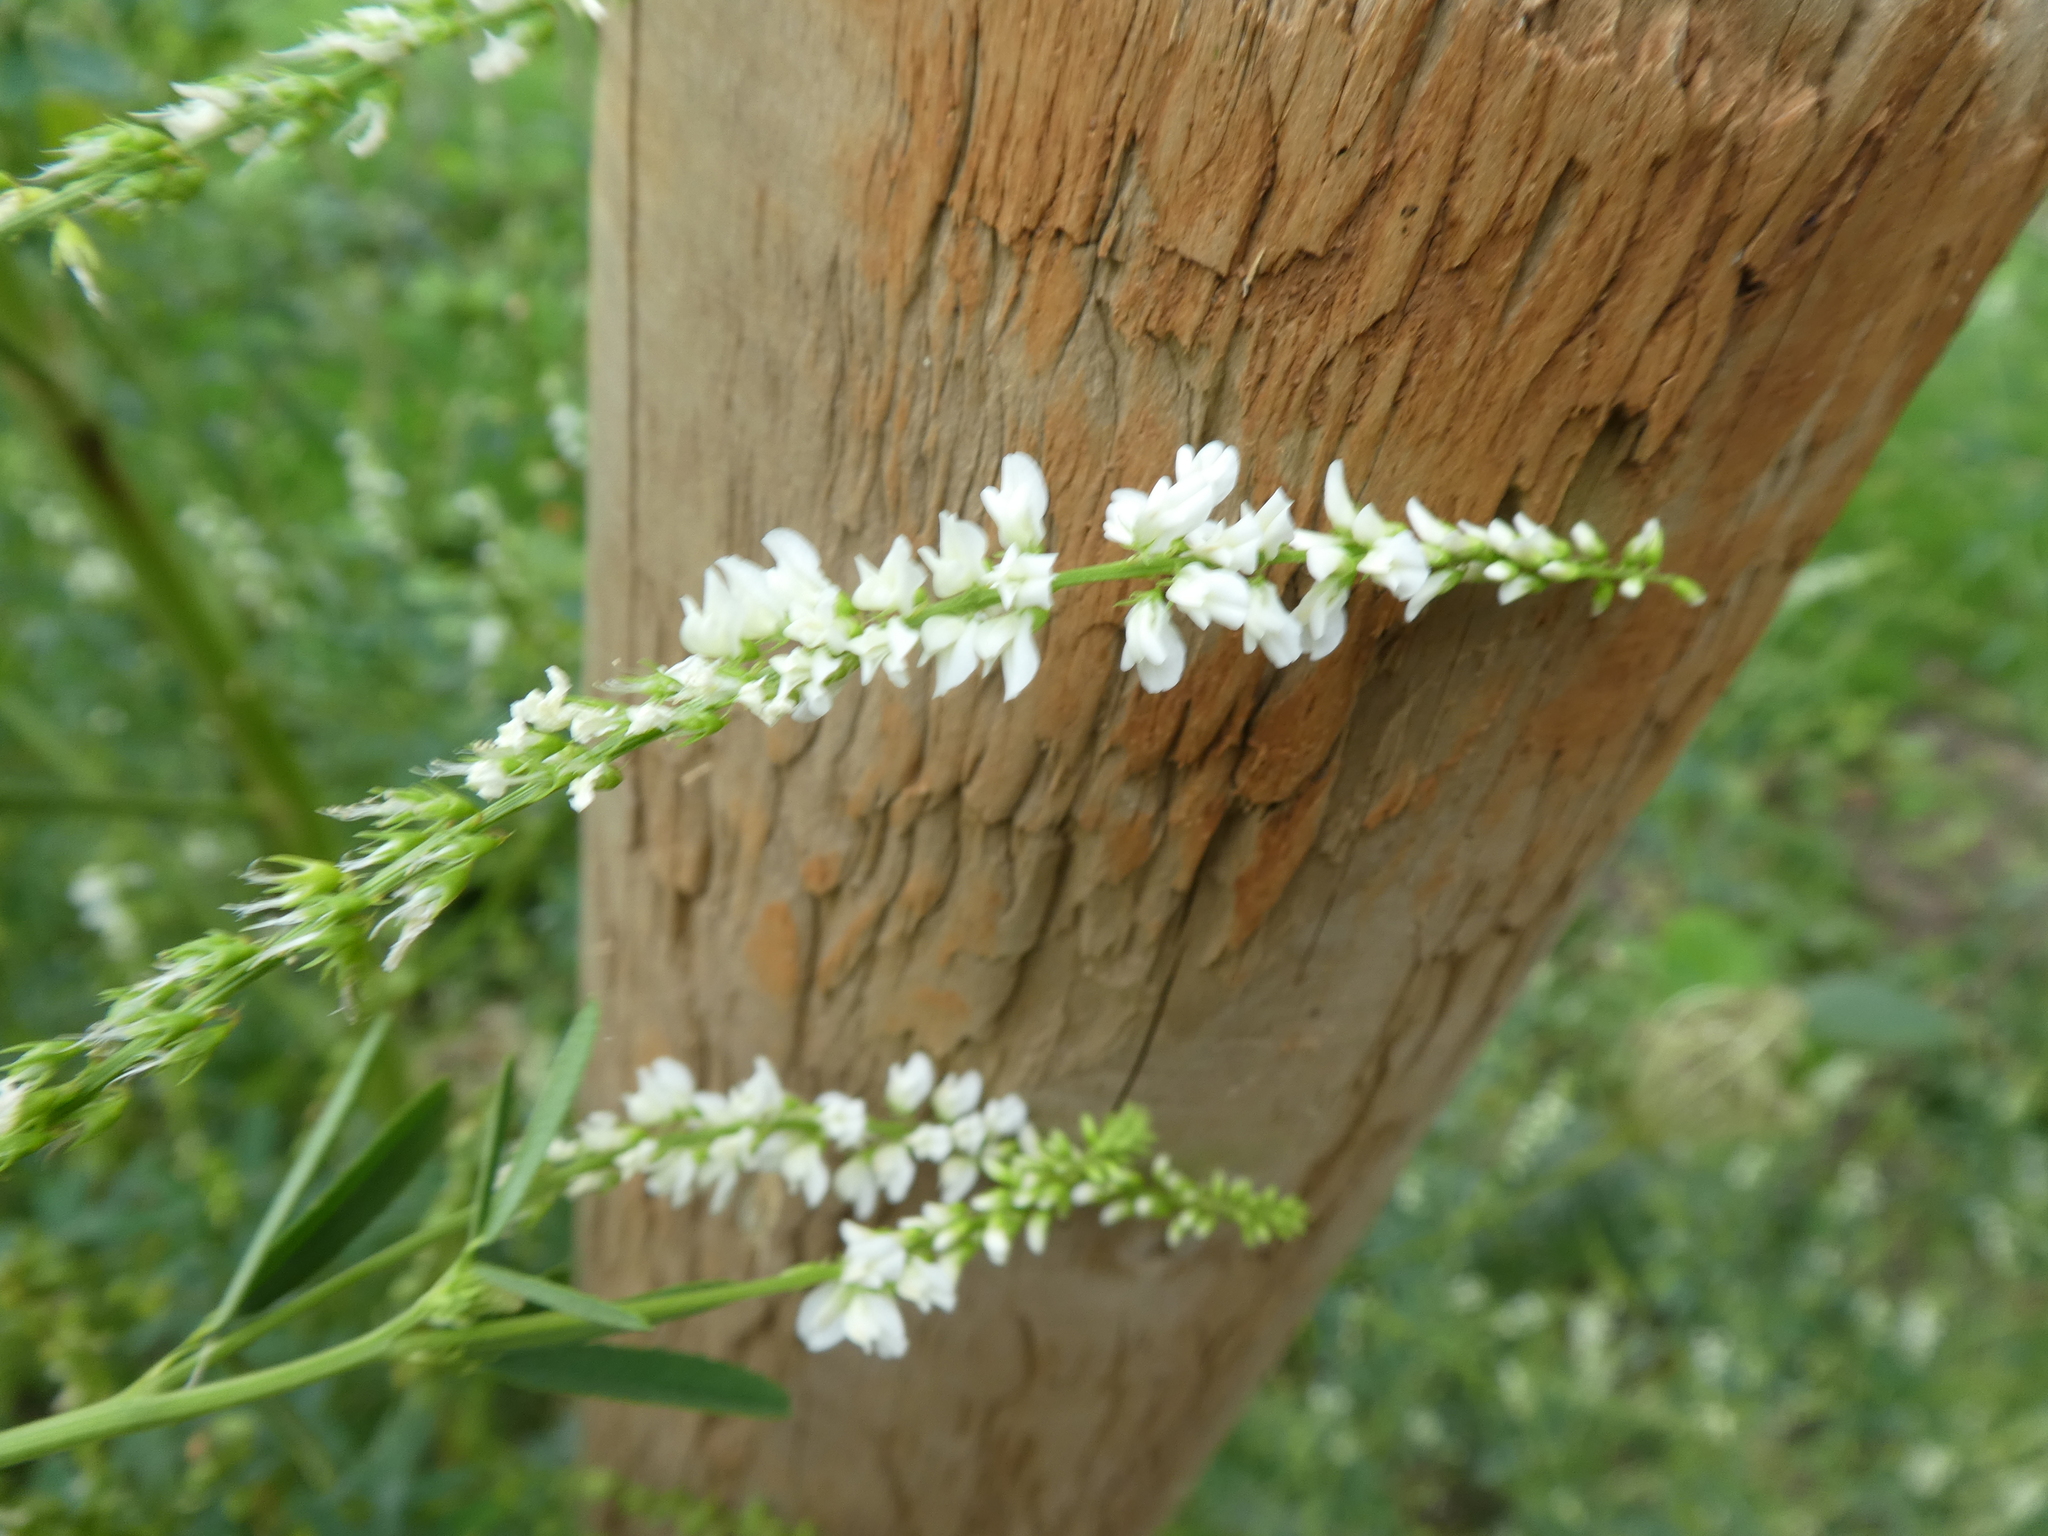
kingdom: Plantae
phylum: Tracheophyta
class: Magnoliopsida
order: Fabales
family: Fabaceae
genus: Melilotus
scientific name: Melilotus albus
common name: White melilot
